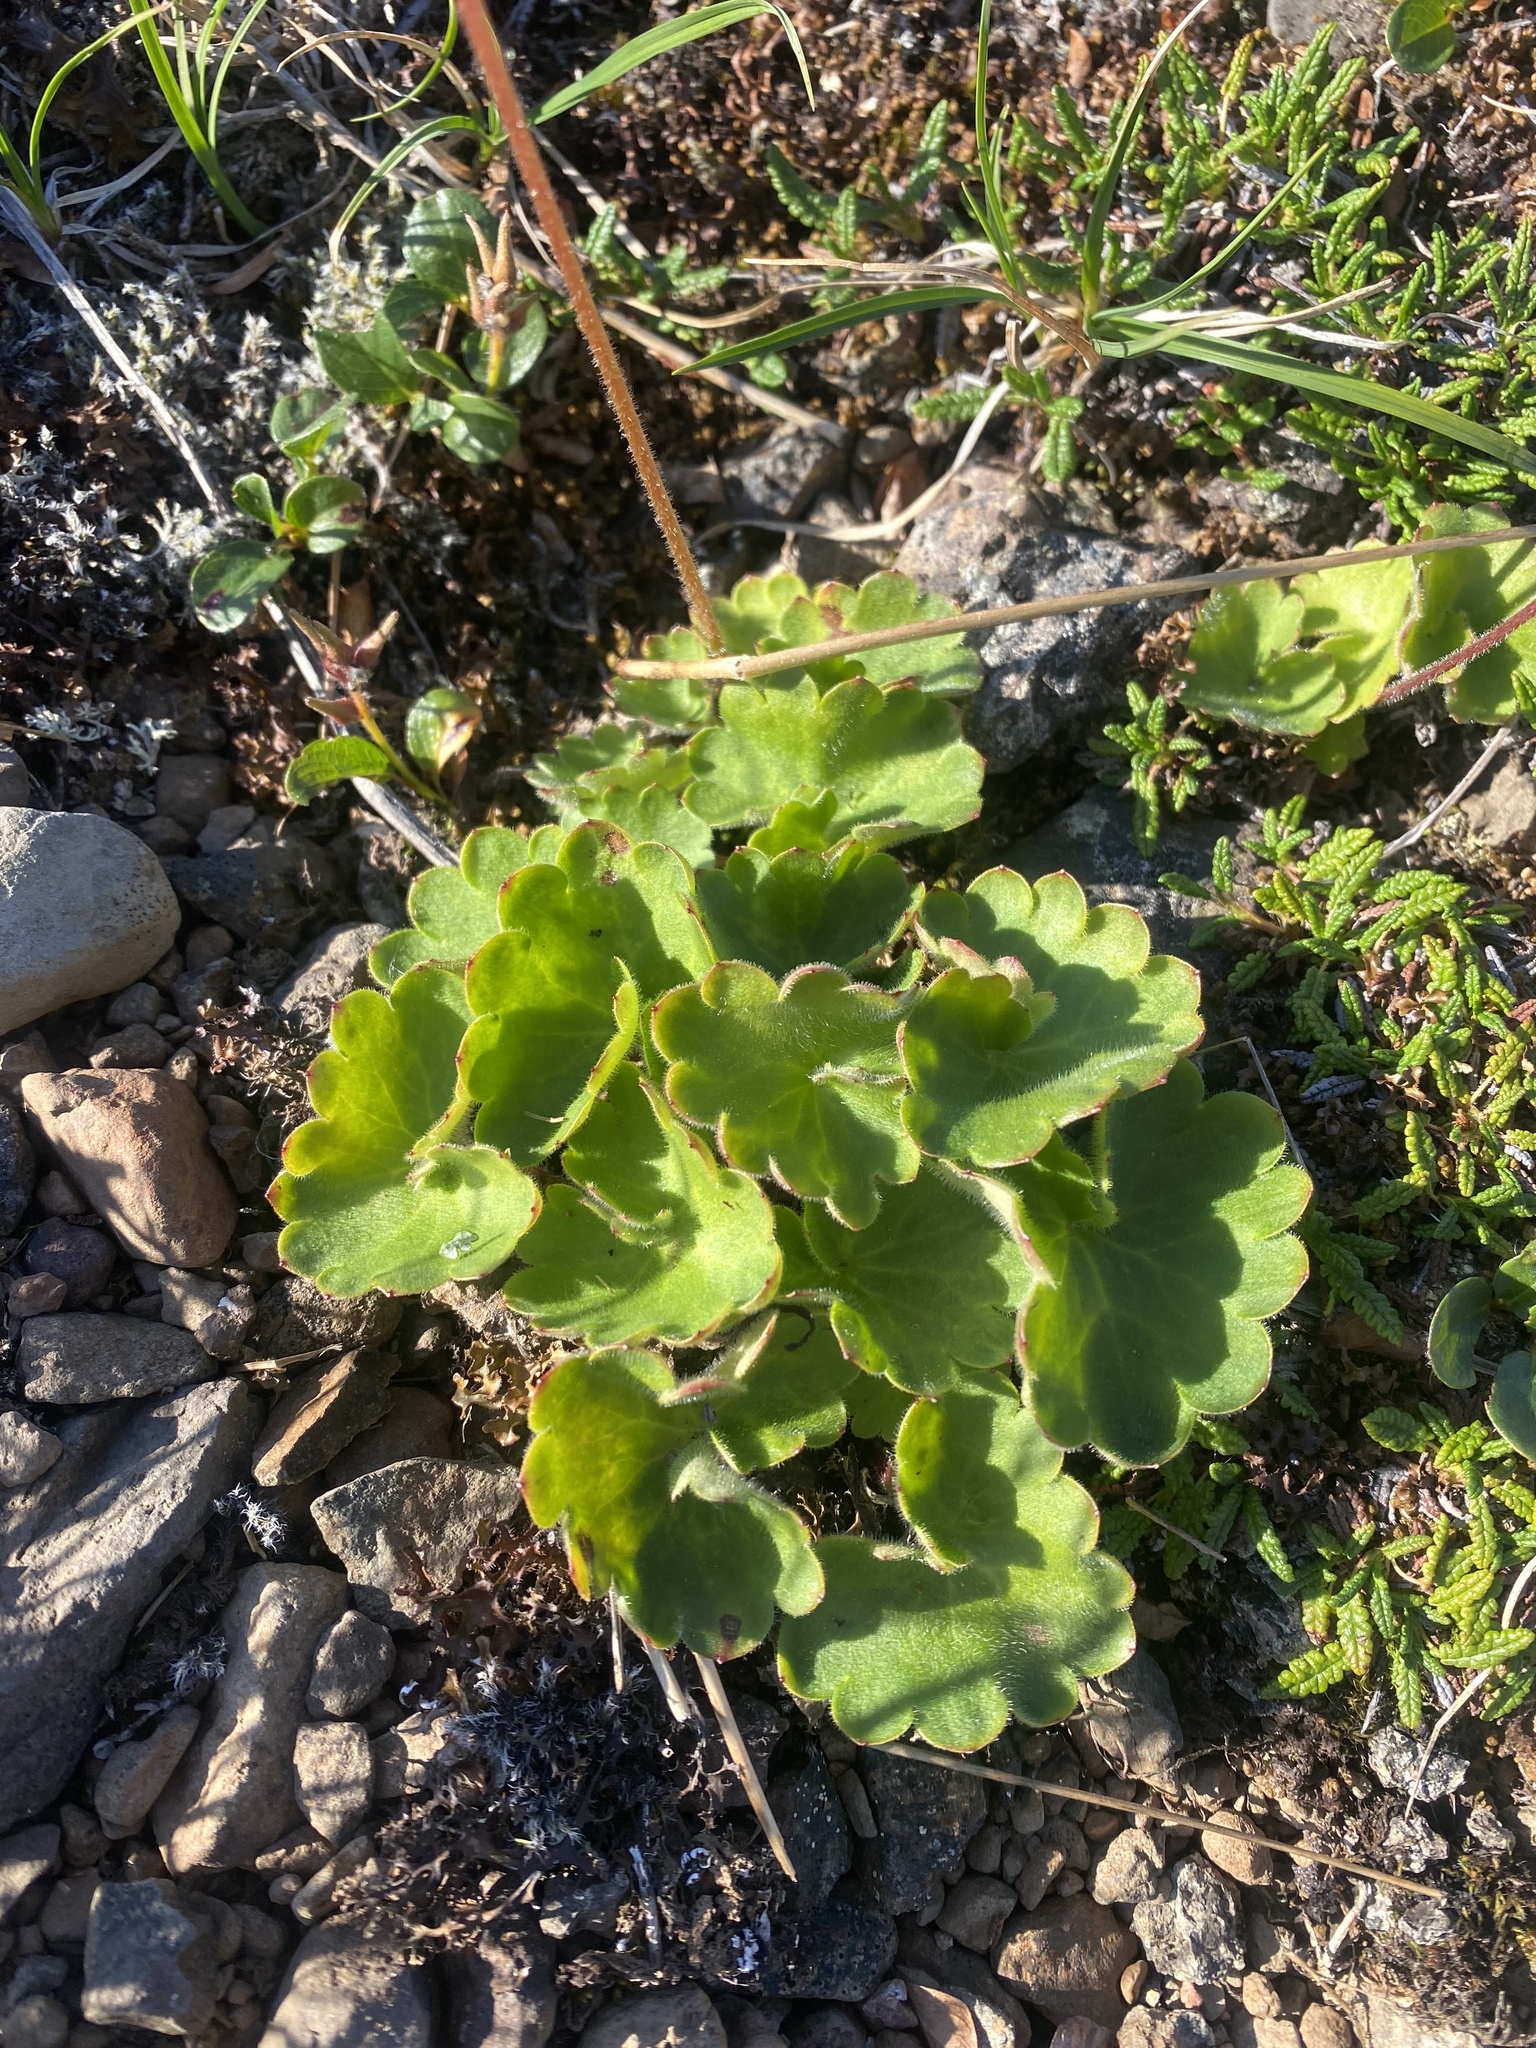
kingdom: Plantae
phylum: Tracheophyta
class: Magnoliopsida
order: Saxifragales
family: Saxifragaceae
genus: Micranthes
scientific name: Micranthes nelsoniana
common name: Nelson's saxifrage
